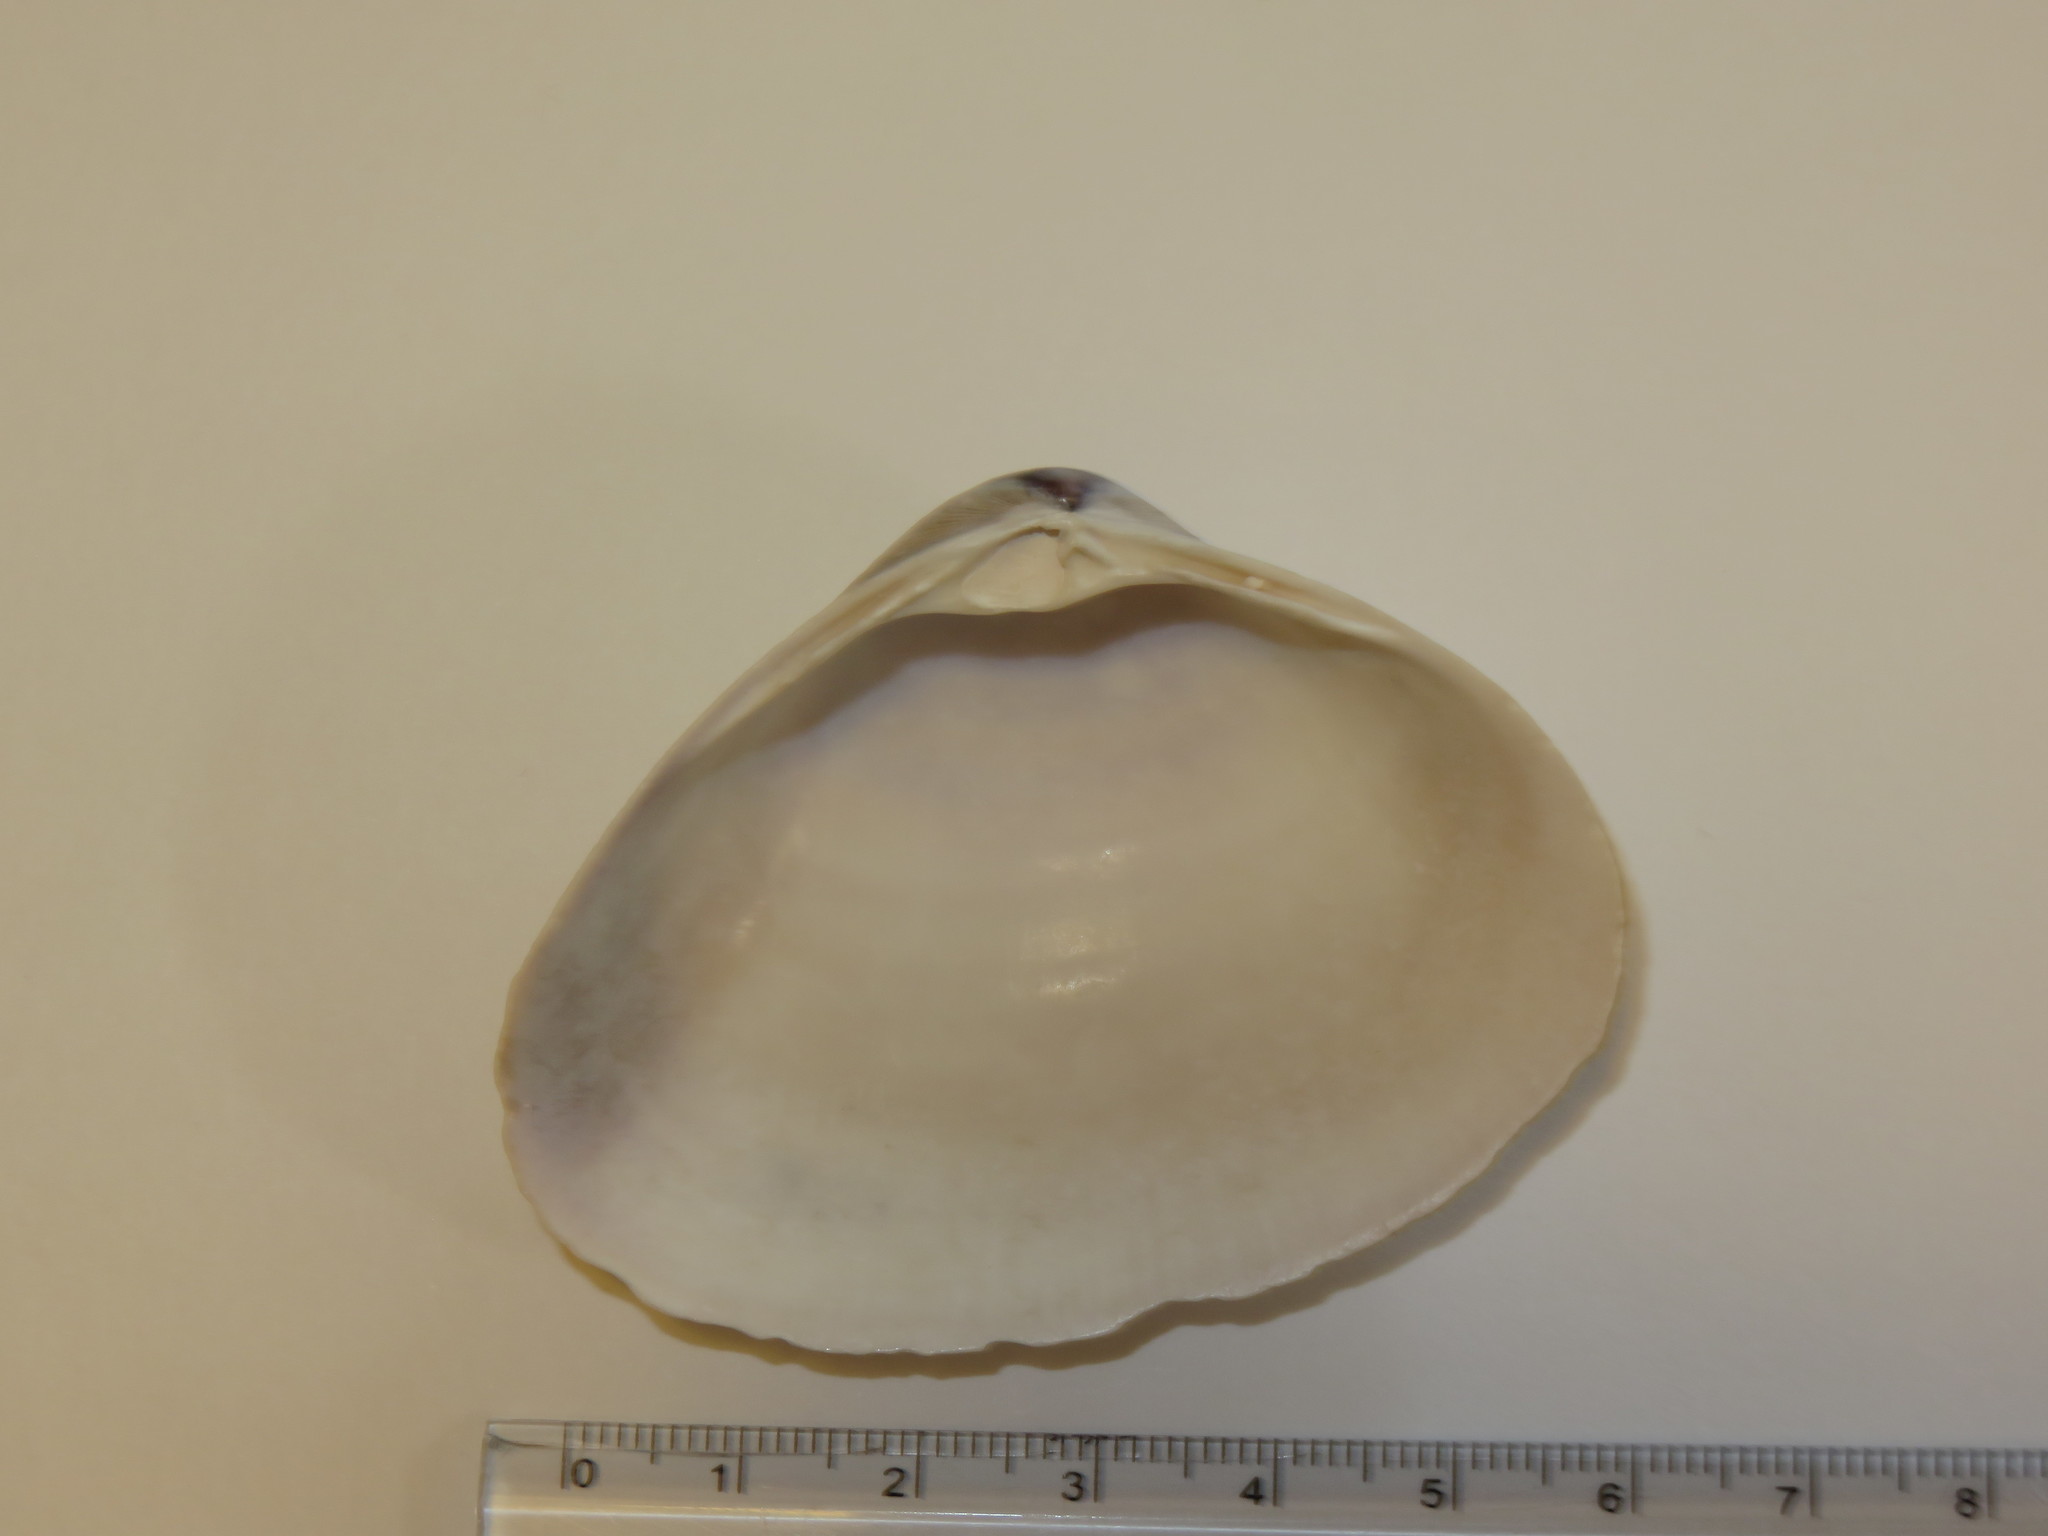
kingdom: Animalia
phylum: Mollusca
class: Bivalvia
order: Venerida
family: Mactridae
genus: Mactra
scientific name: Mactra chinensis
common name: Chinese surf clam
